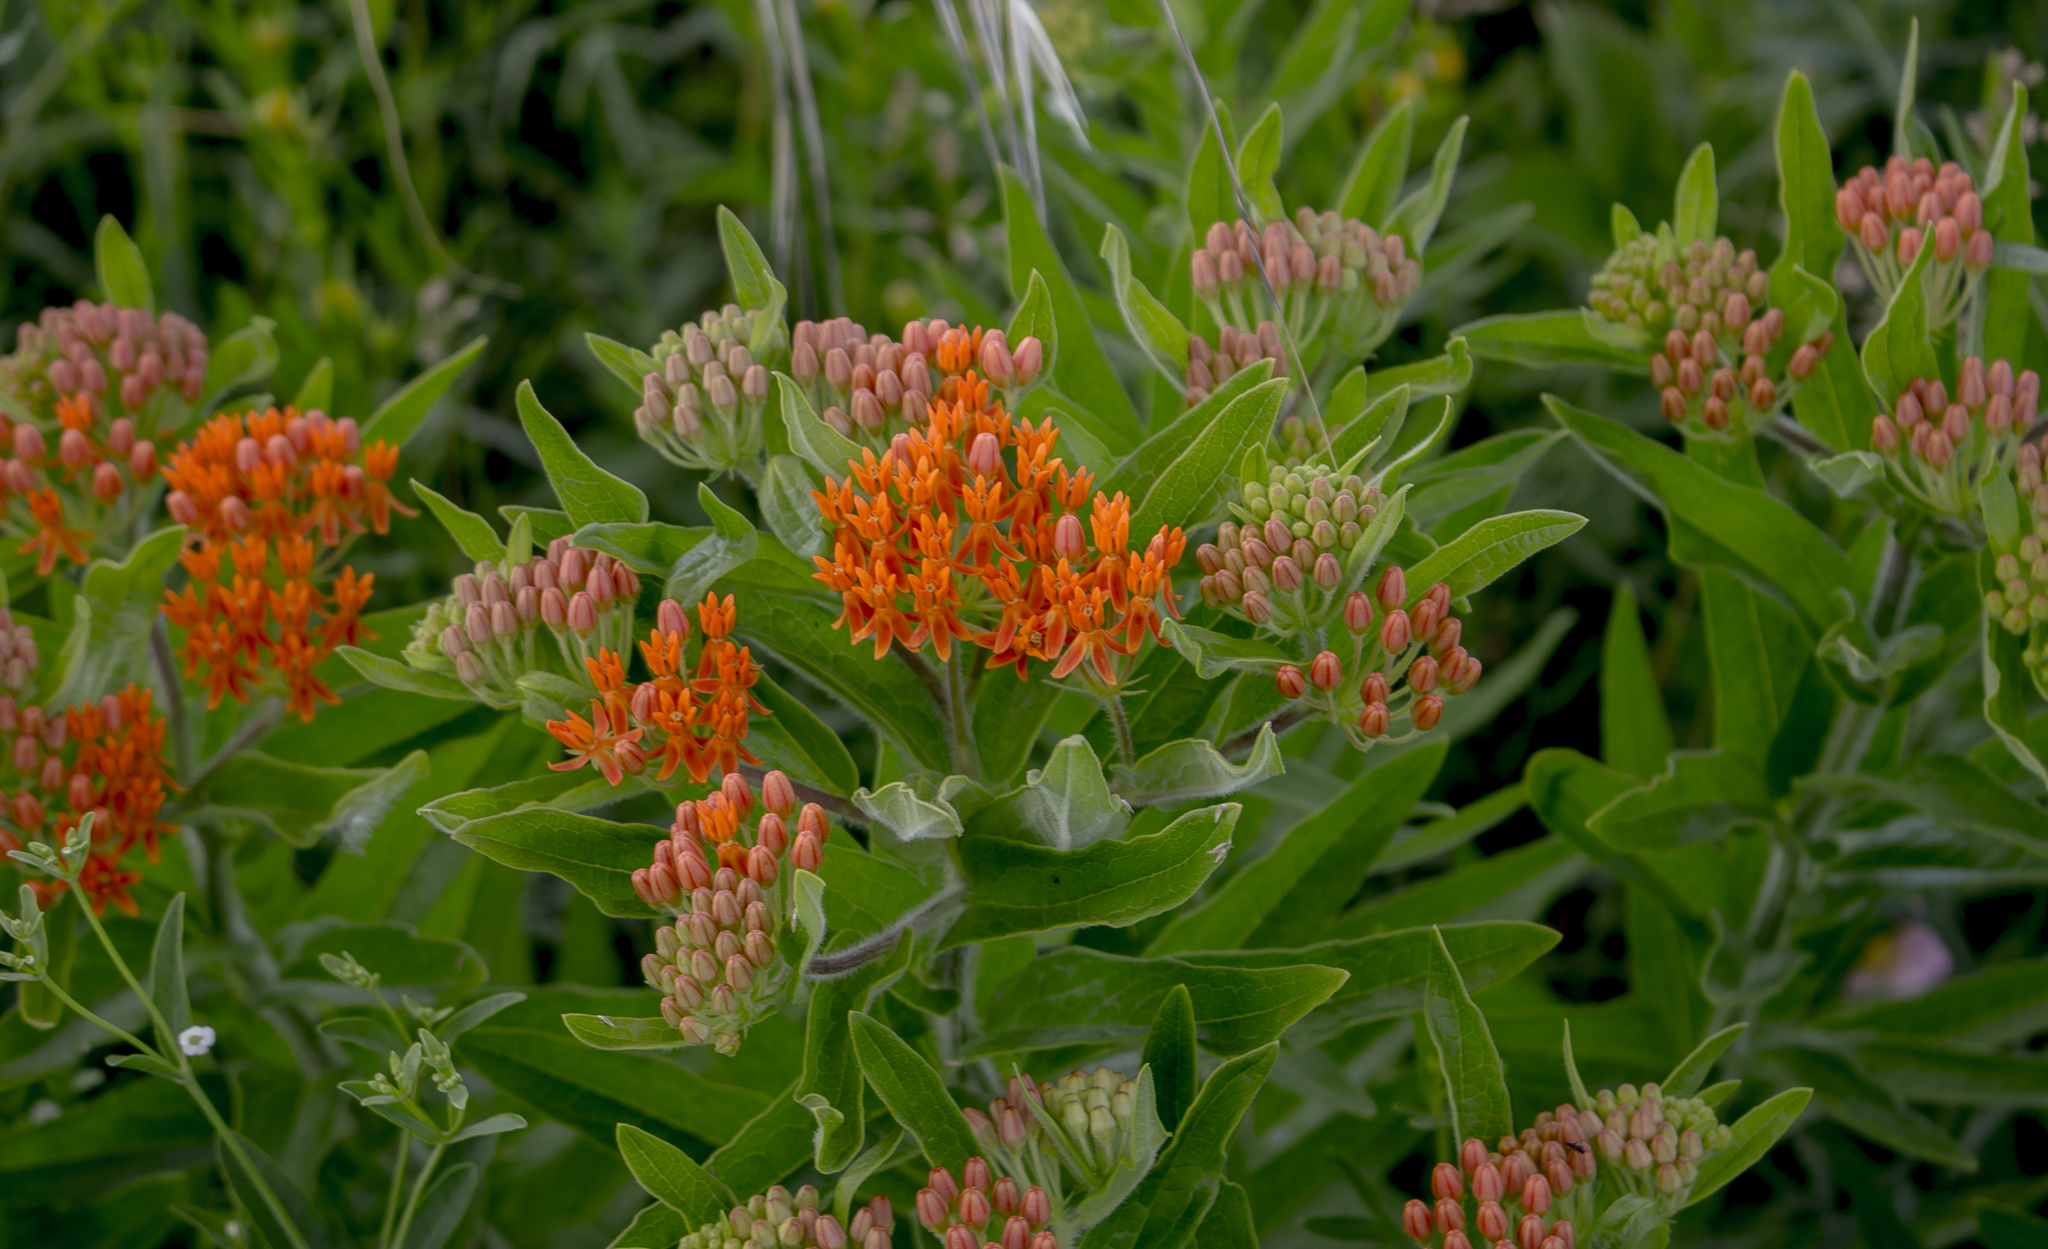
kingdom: Plantae
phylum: Tracheophyta
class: Magnoliopsida
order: Gentianales
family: Apocynaceae
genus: Asclepias
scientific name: Asclepias tuberosa
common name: Butterfly milkweed
